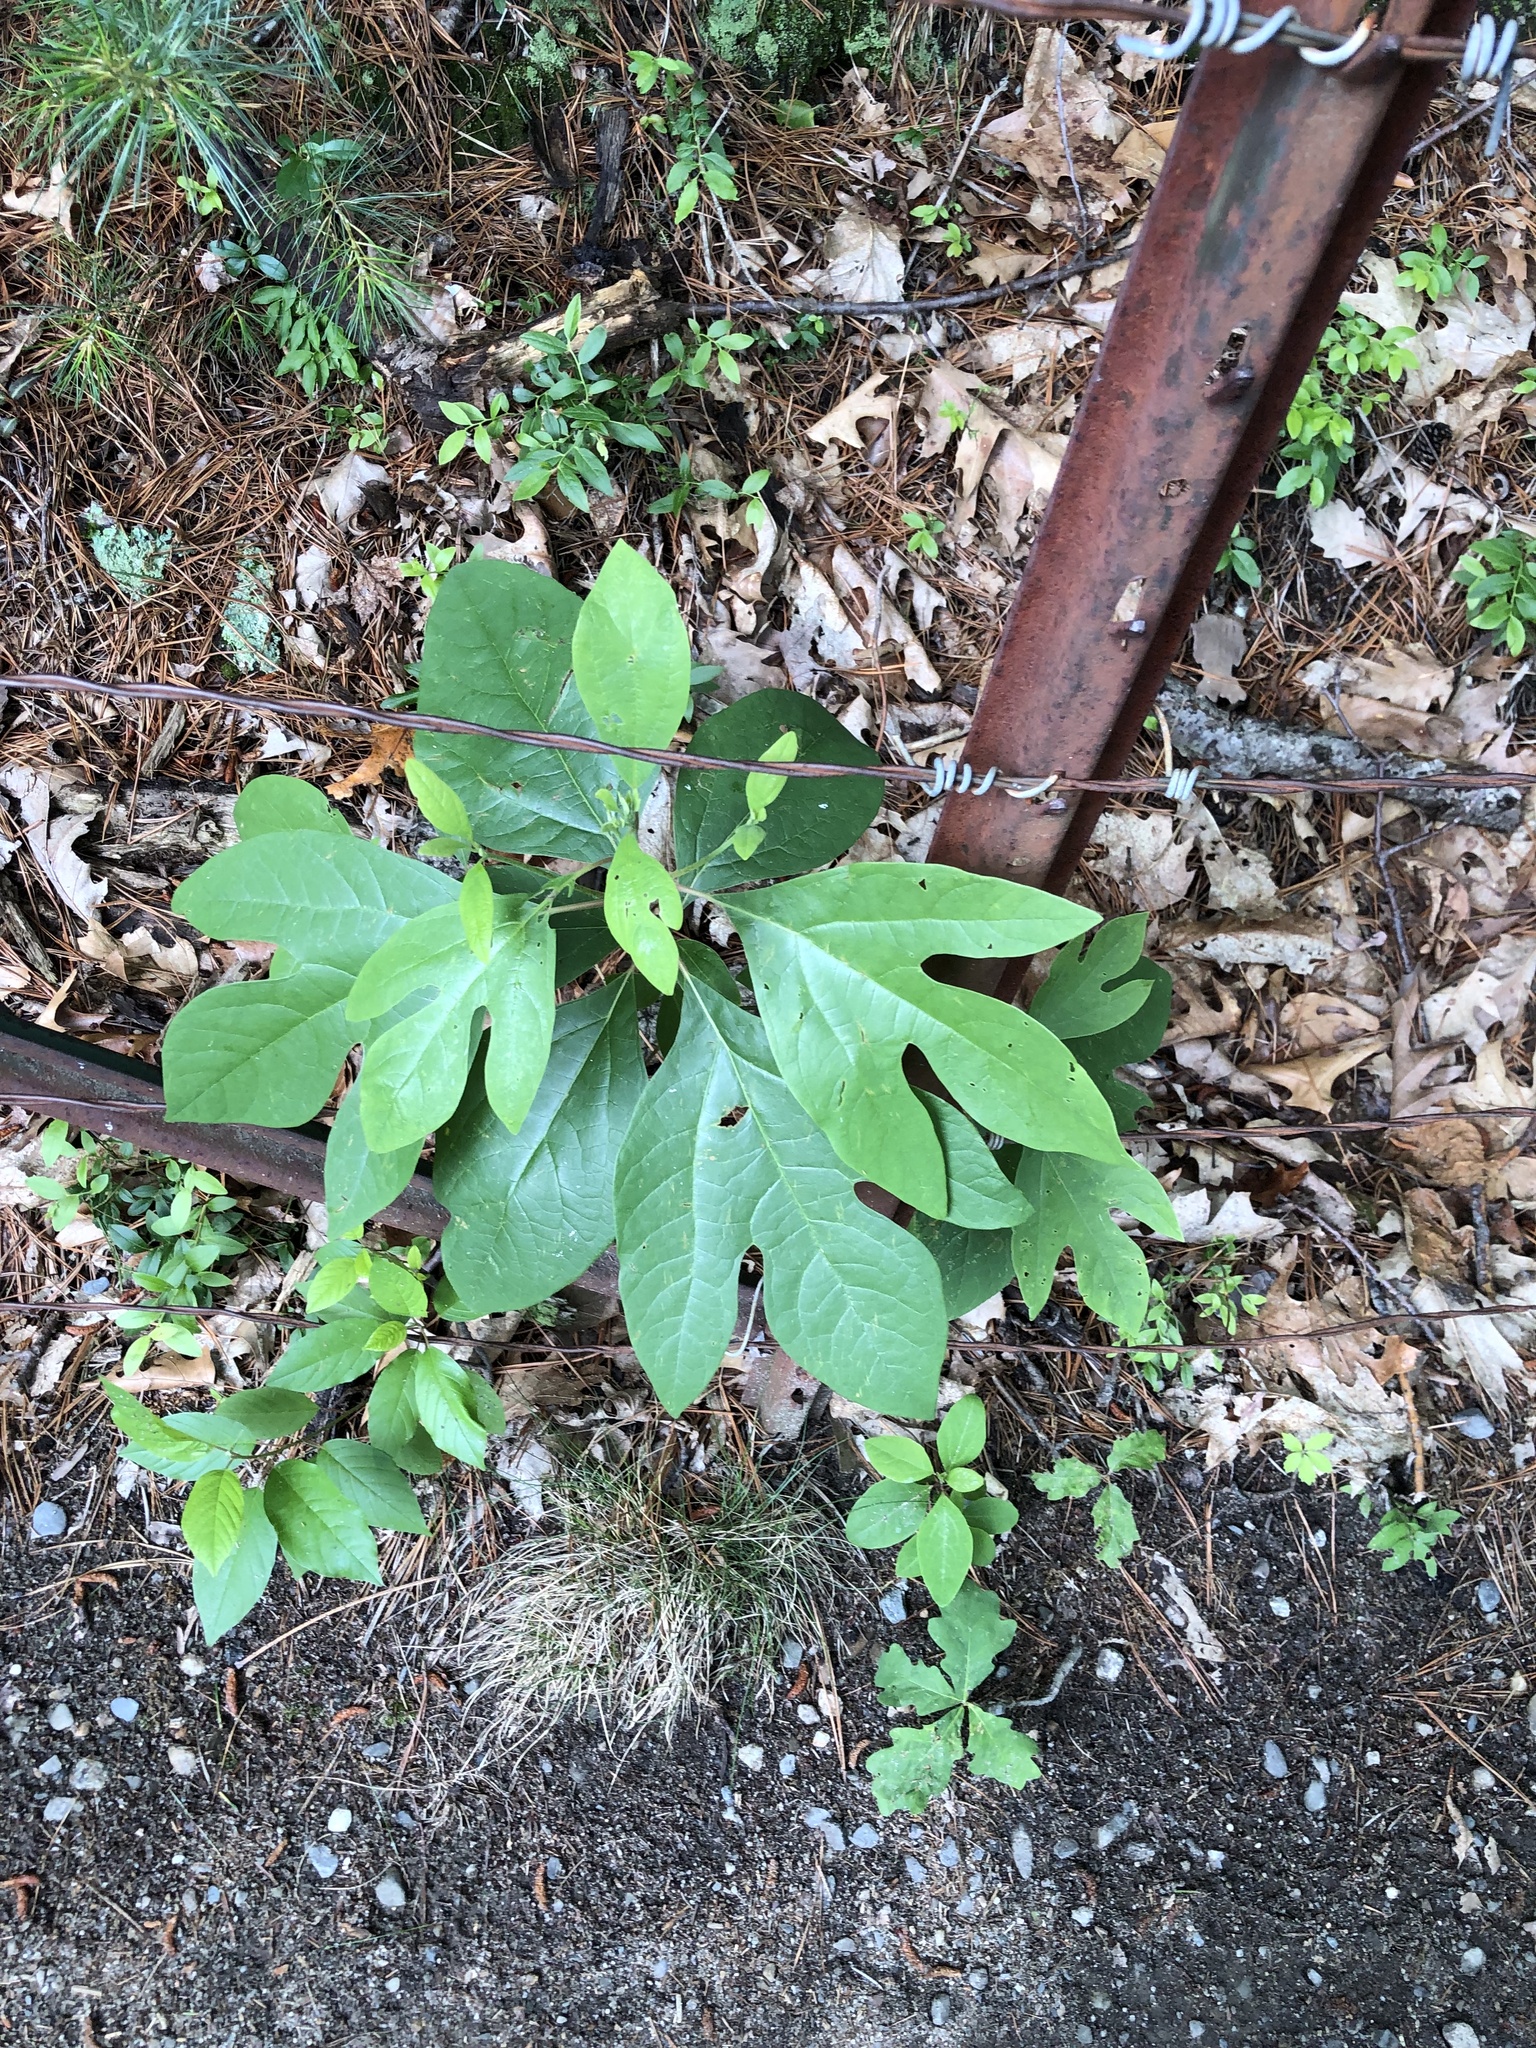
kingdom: Plantae
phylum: Tracheophyta
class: Magnoliopsida
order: Laurales
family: Lauraceae
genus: Sassafras
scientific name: Sassafras albidum
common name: Sassafras
